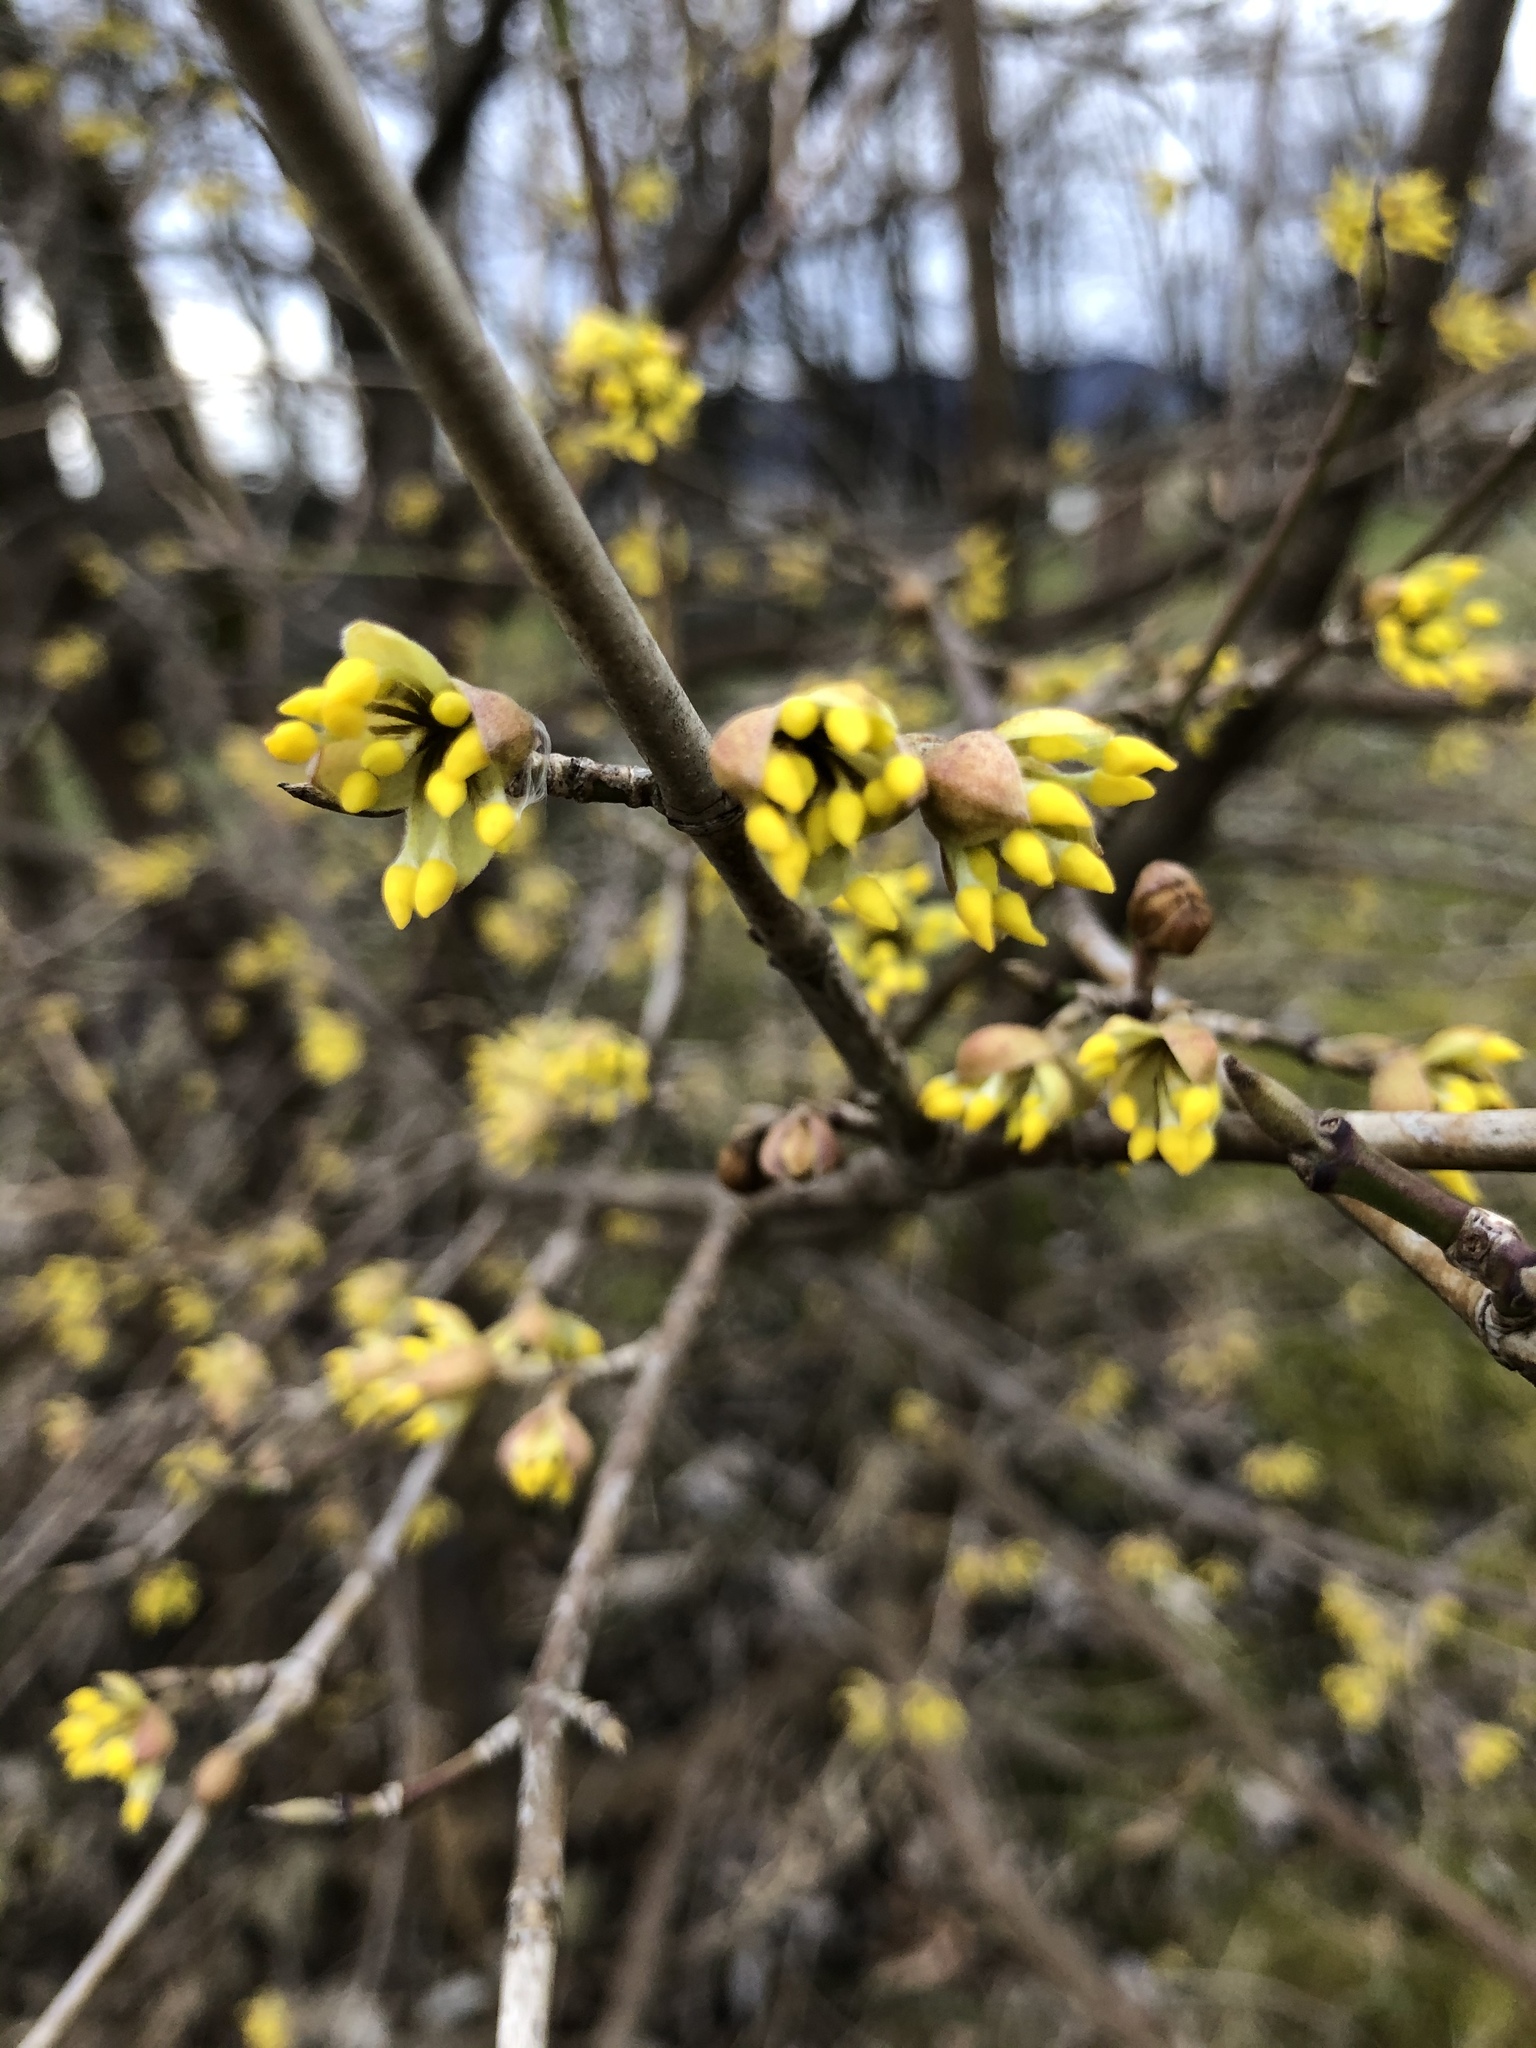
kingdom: Plantae
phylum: Tracheophyta
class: Magnoliopsida
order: Cornales
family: Cornaceae
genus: Cornus
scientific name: Cornus mas
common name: Cornelian-cherry
